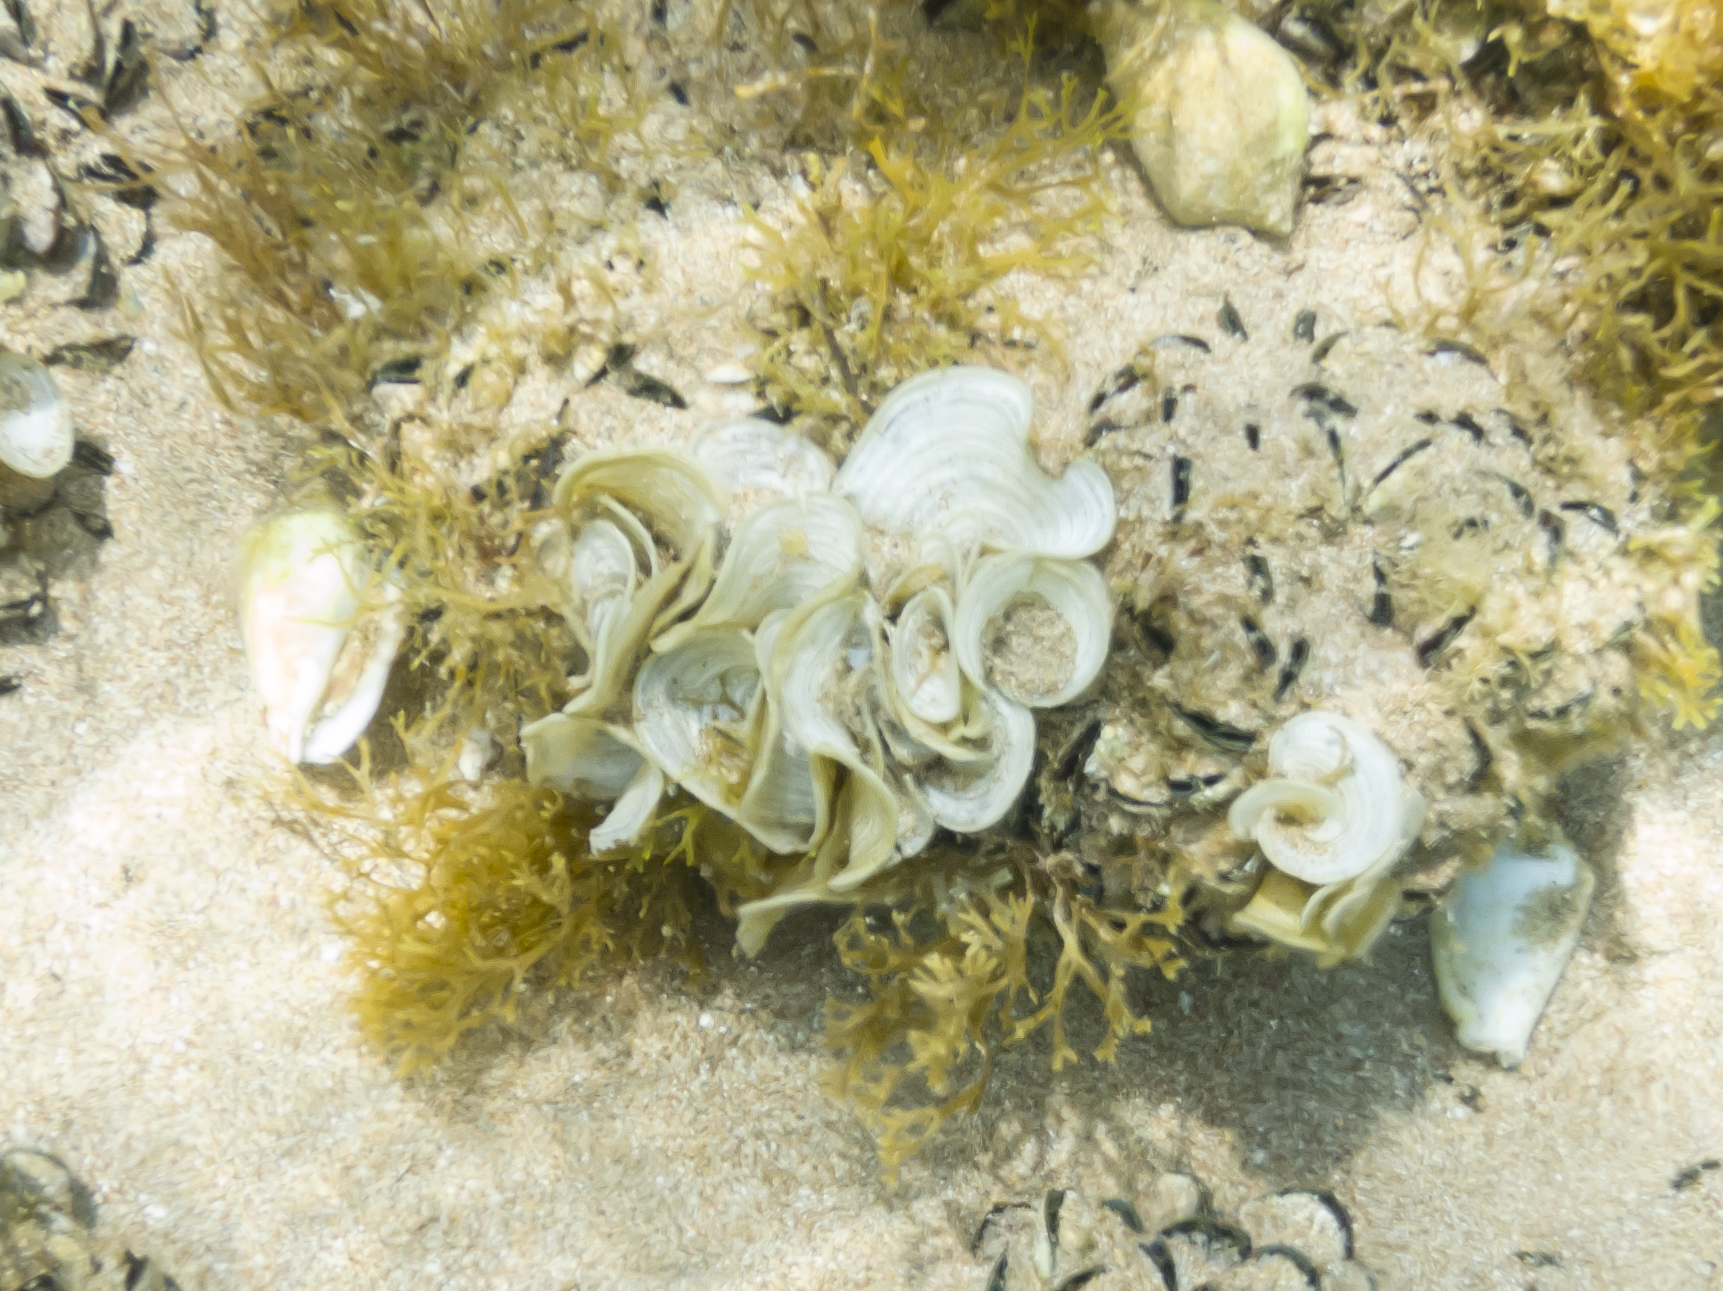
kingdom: Chromista
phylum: Ochrophyta
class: Phaeophyceae
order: Dictyotales
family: Dictyotaceae
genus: Padina
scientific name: Padina
